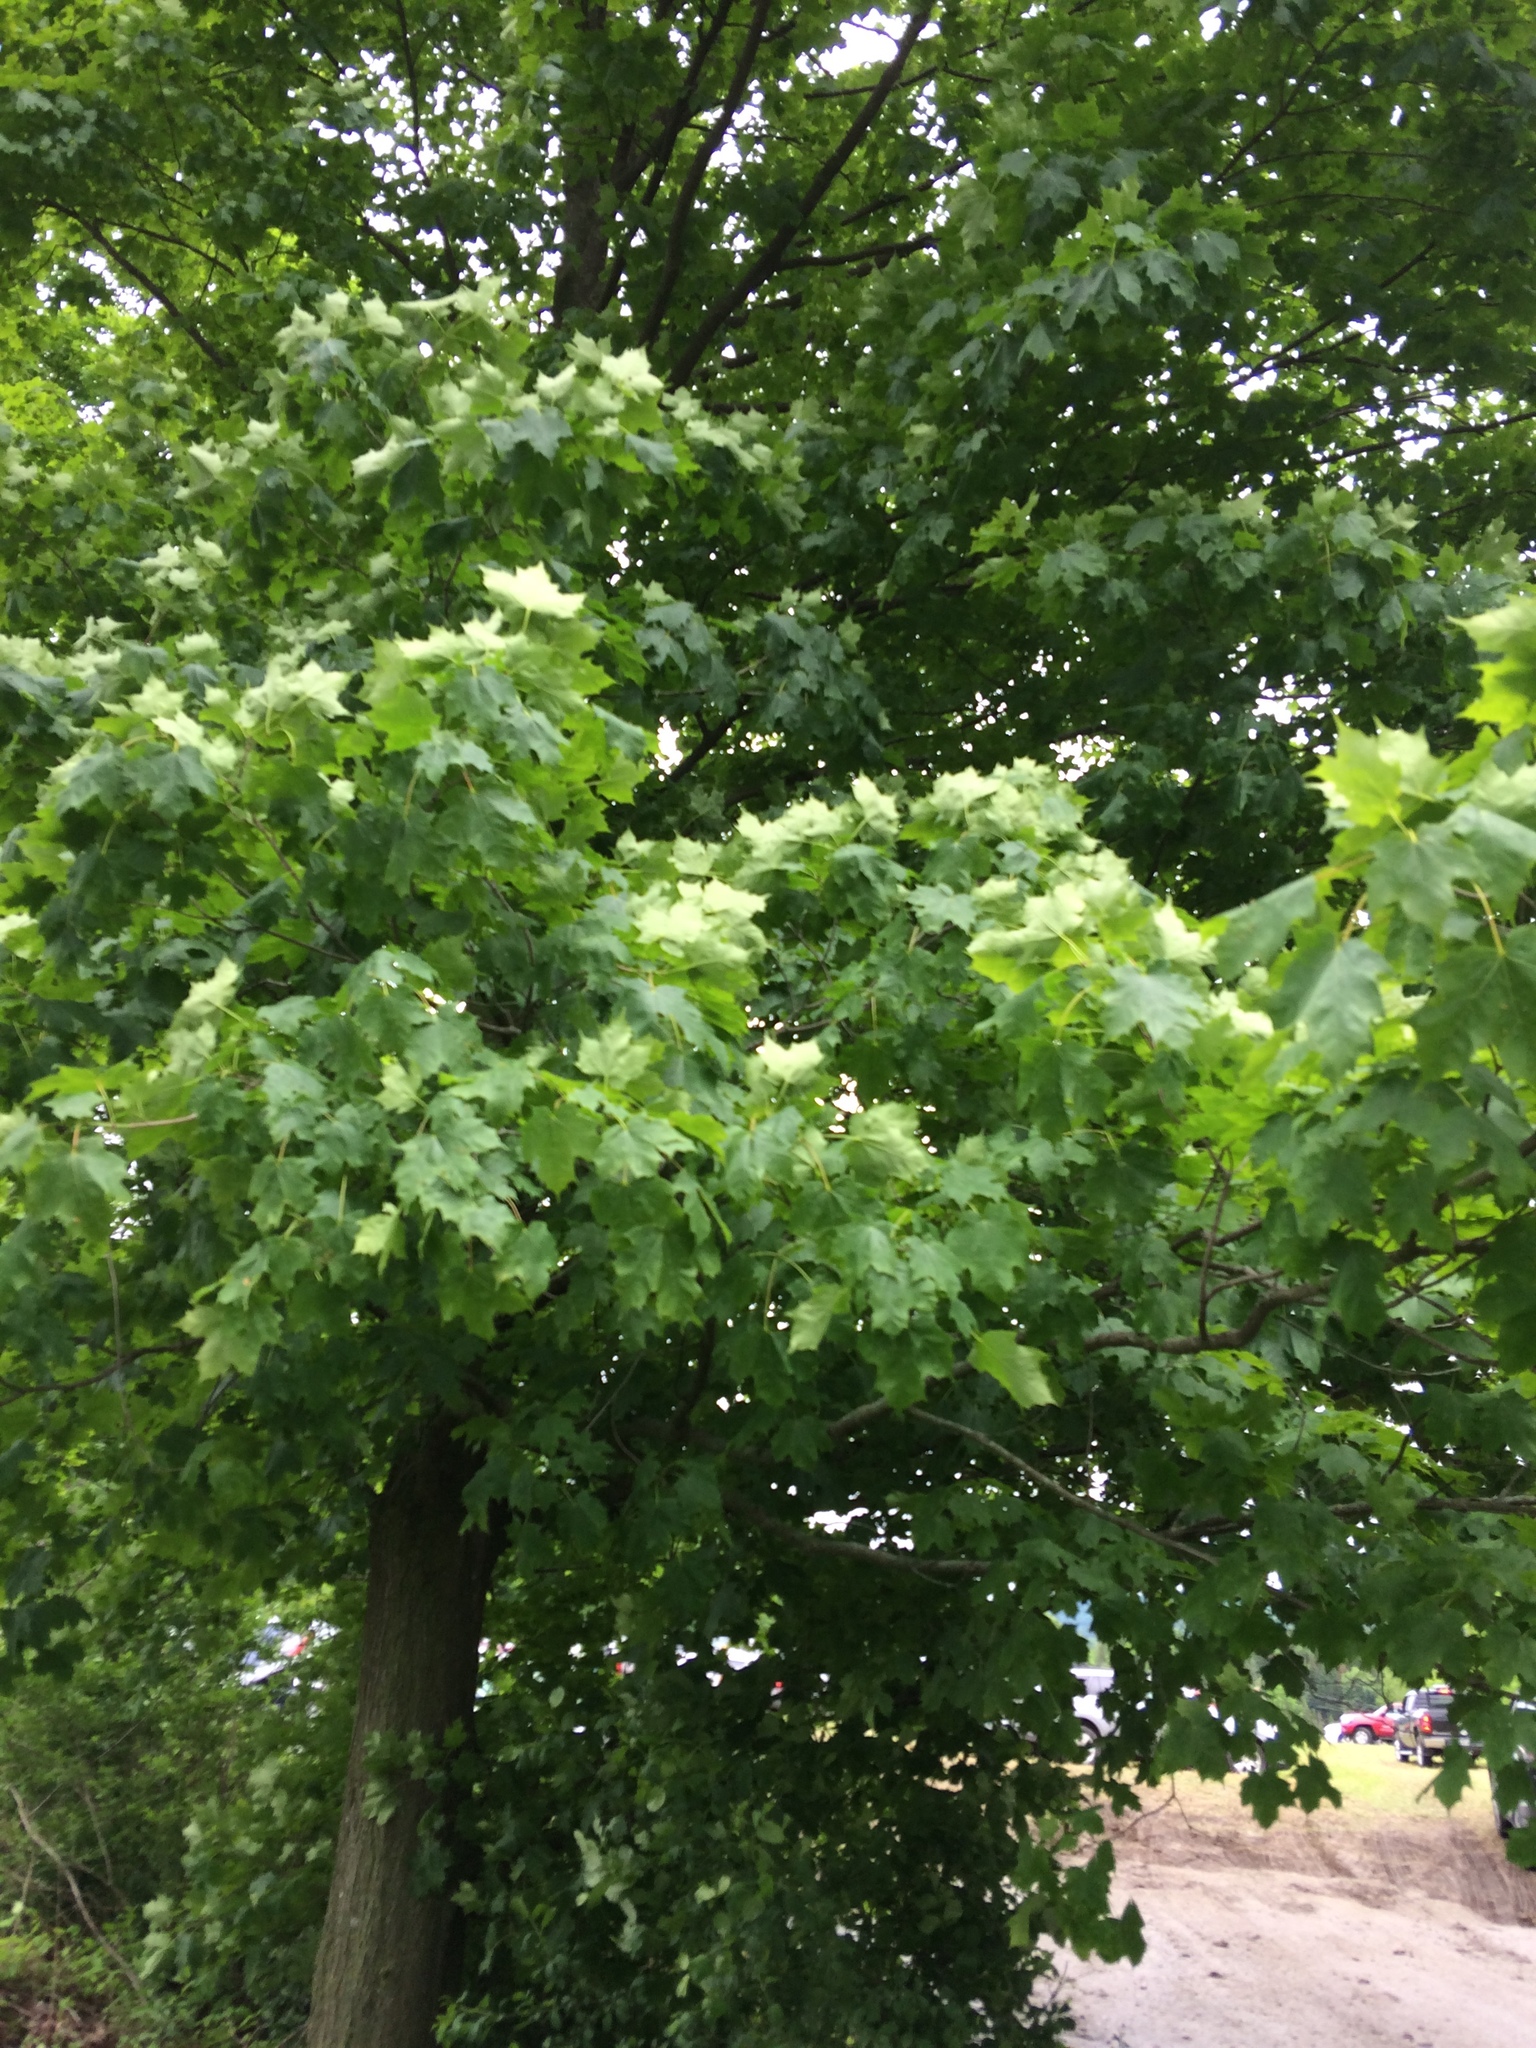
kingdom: Plantae
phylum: Tracheophyta
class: Magnoliopsida
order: Sapindales
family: Sapindaceae
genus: Acer
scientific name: Acer saccharum
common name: Sugar maple
